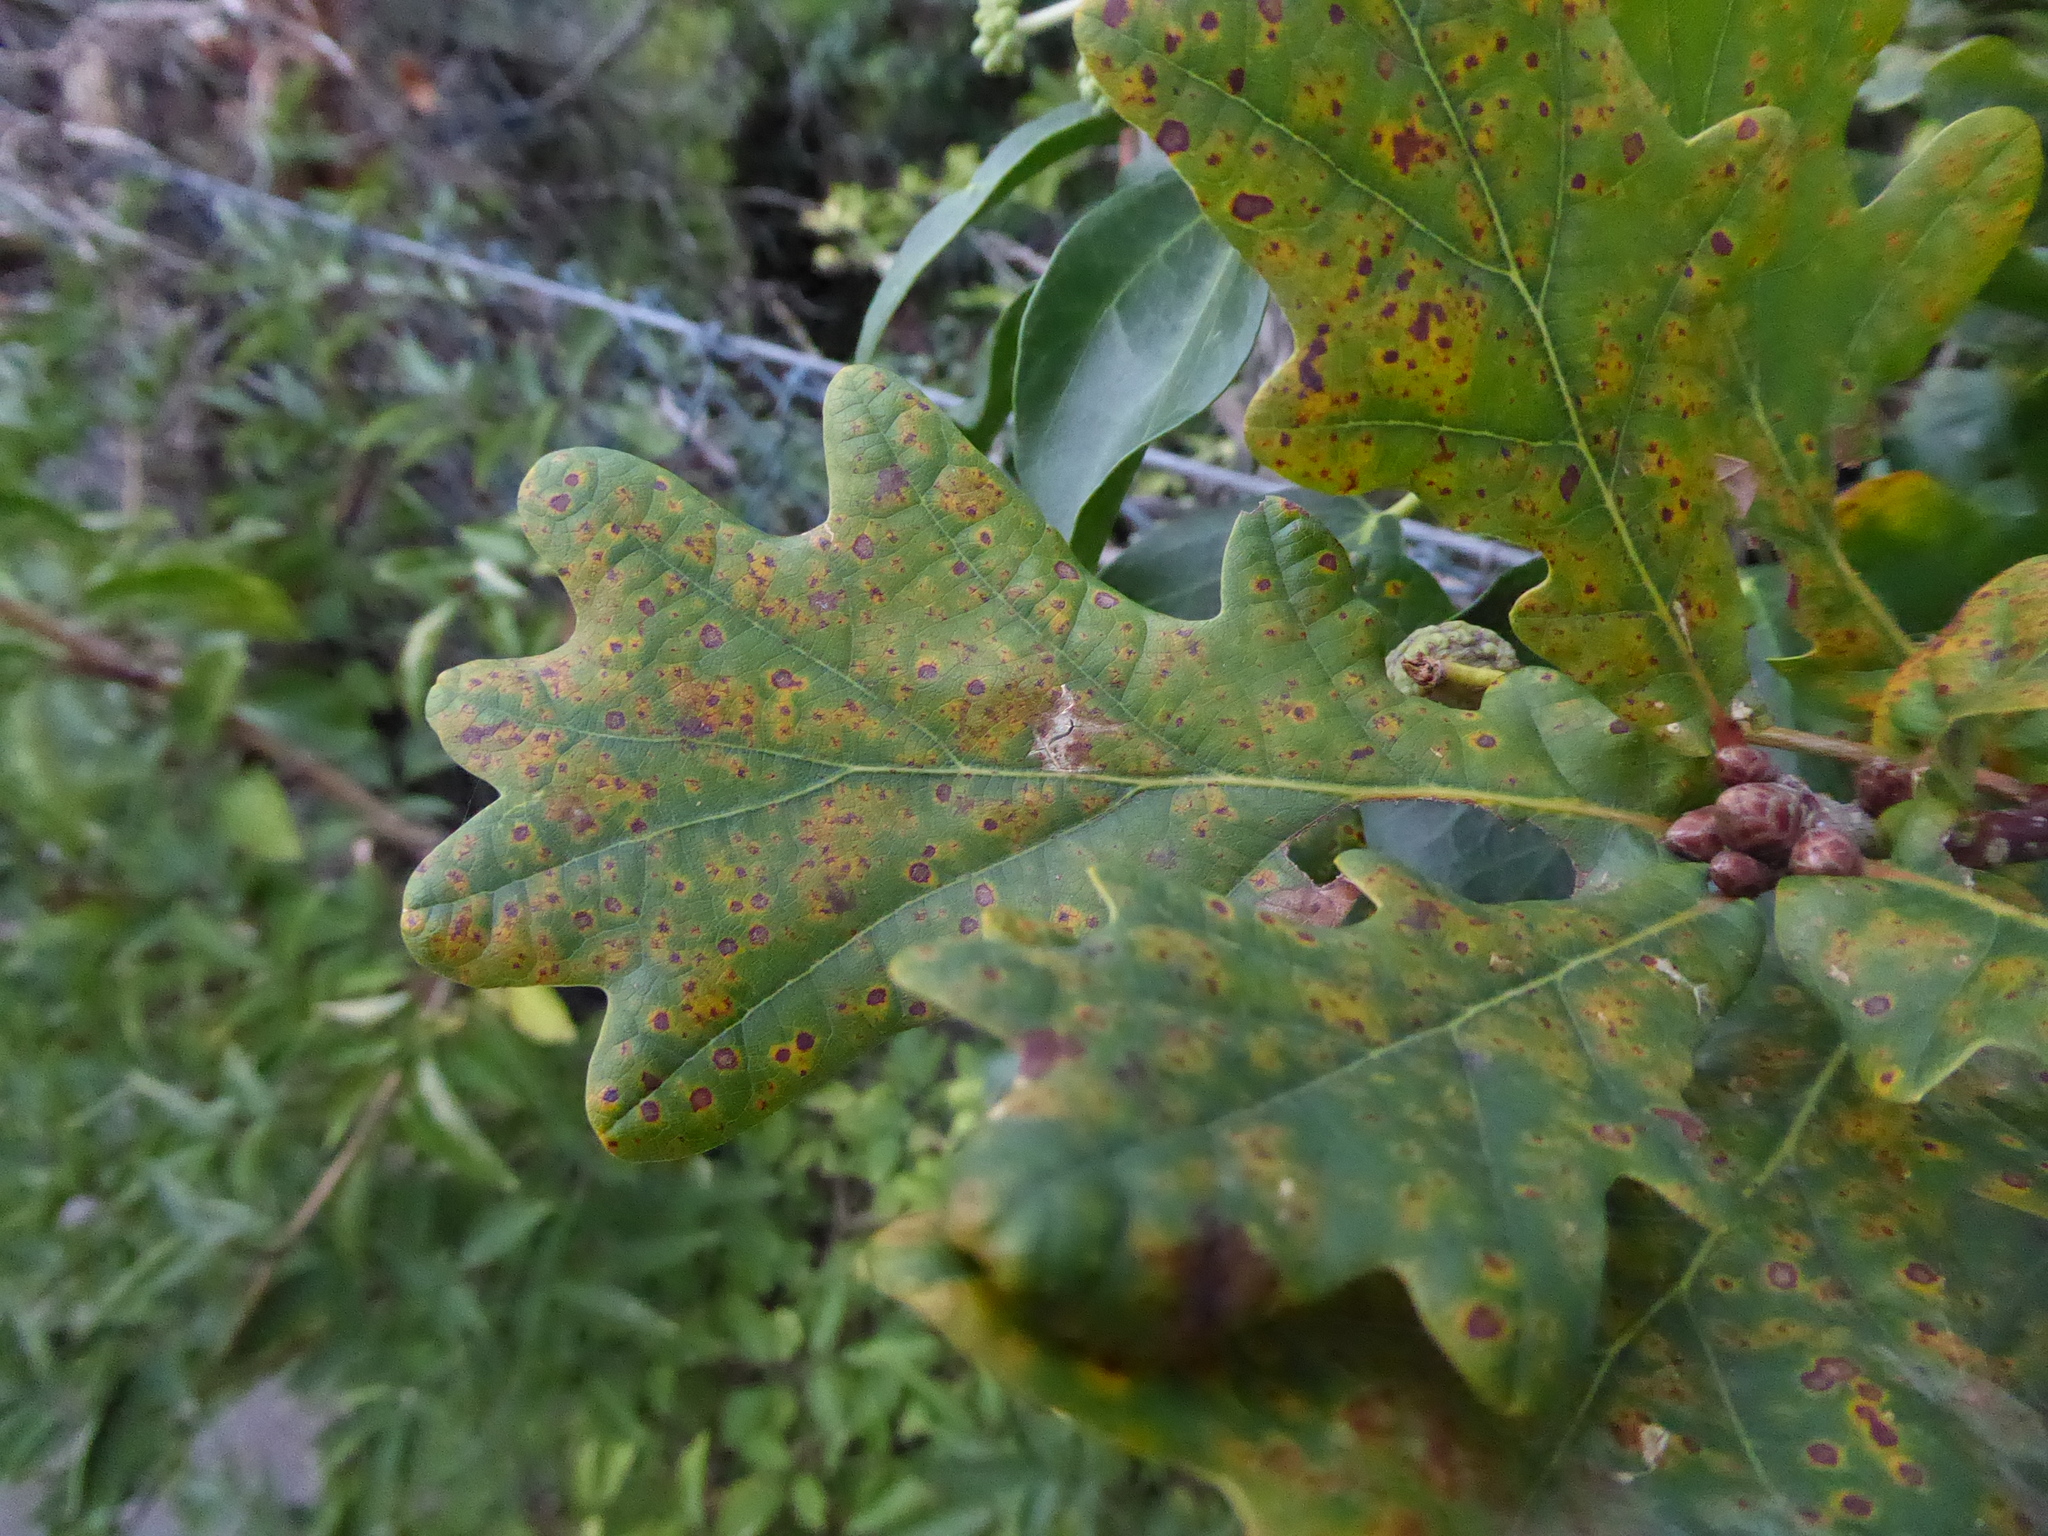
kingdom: Plantae
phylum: Tracheophyta
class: Magnoliopsida
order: Fagales
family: Fagaceae
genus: Quercus
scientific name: Quercus robur
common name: Pedunculate oak
